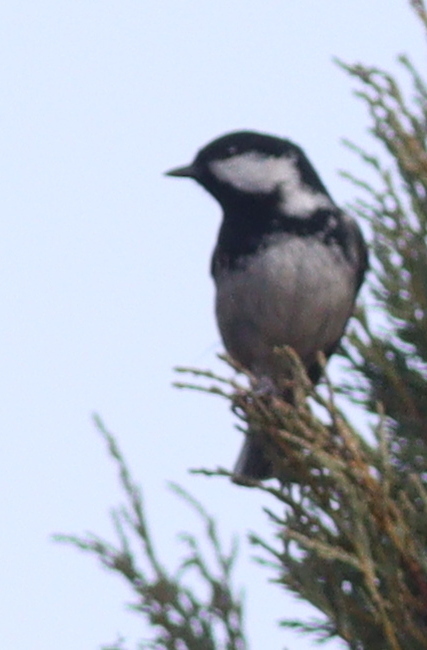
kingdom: Animalia
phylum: Chordata
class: Aves
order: Passeriformes
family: Paridae
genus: Periparus
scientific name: Periparus ater
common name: Coal tit
